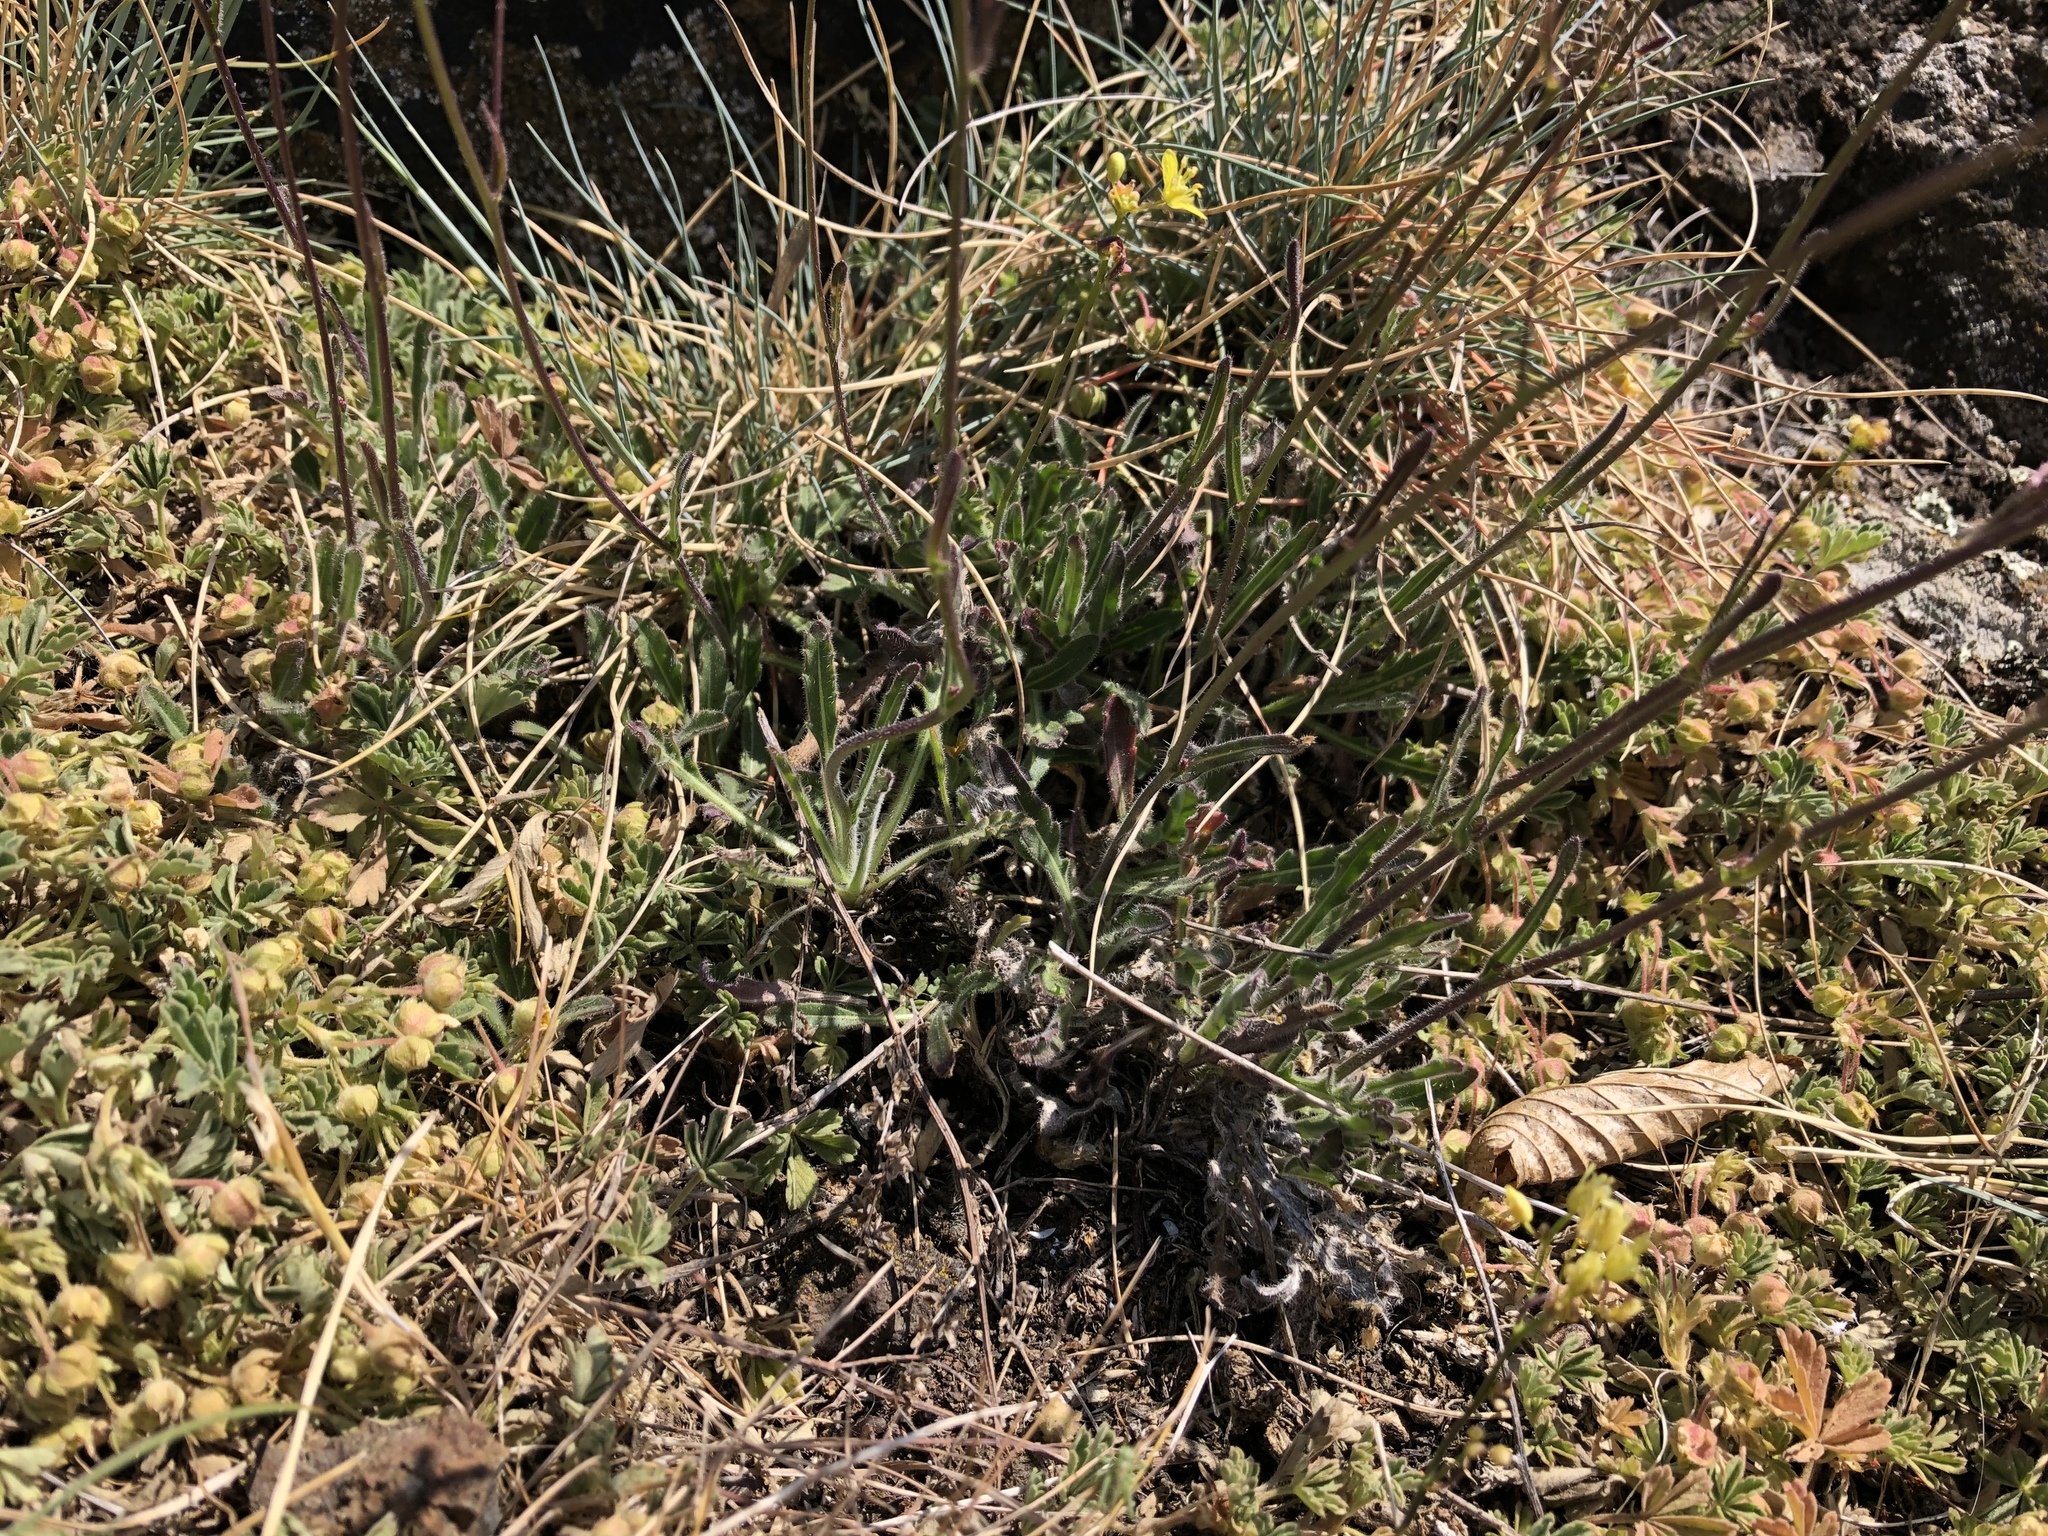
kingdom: Plantae
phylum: Tracheophyta
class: Magnoliopsida
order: Brassicales
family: Brassicaceae
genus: Biscutella
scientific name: Biscutella laevigata
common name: Buckler mustard
